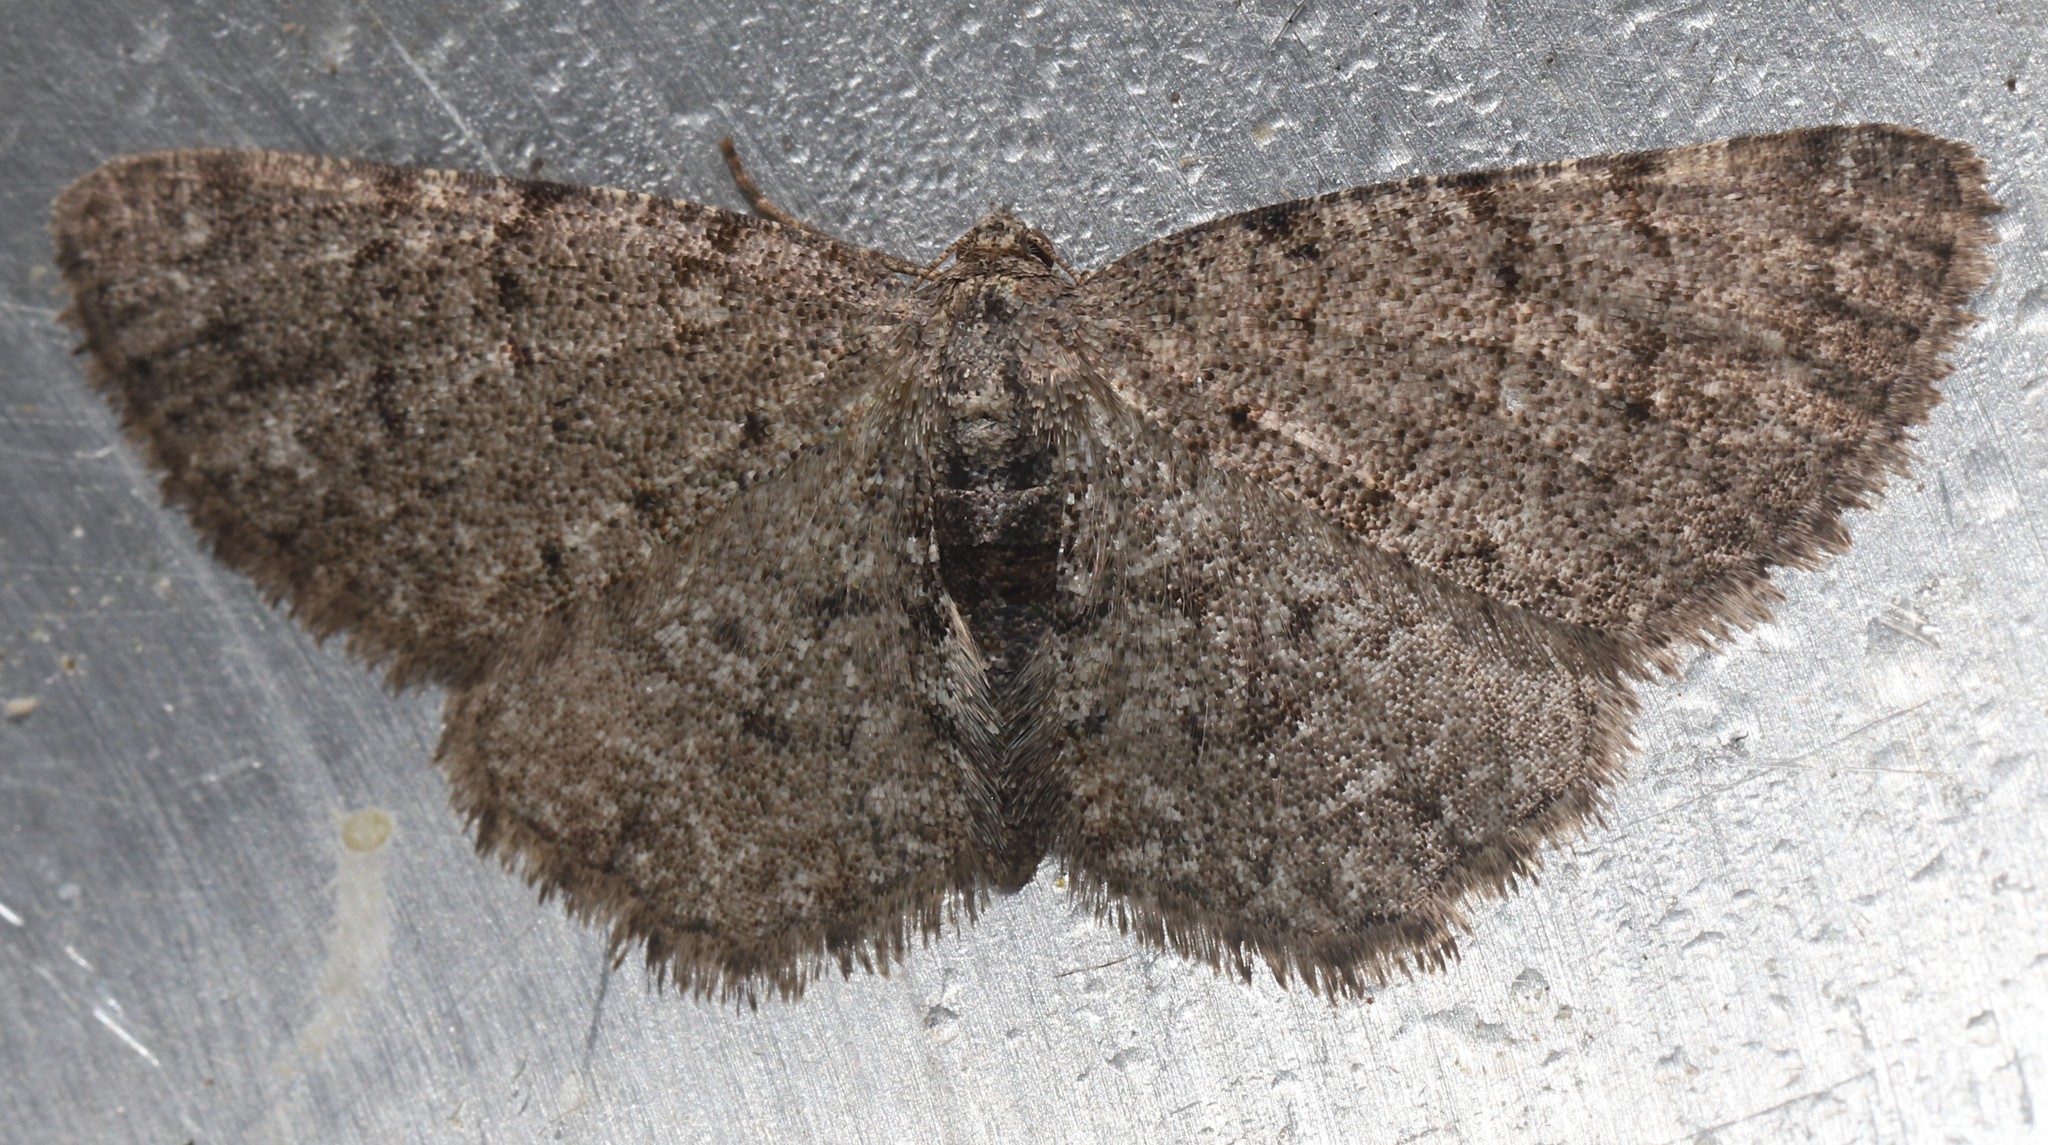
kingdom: Animalia
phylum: Arthropoda
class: Insecta
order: Lepidoptera
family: Geometridae
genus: Aethalura
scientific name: Aethalura intertexta
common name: Four-barred gray
